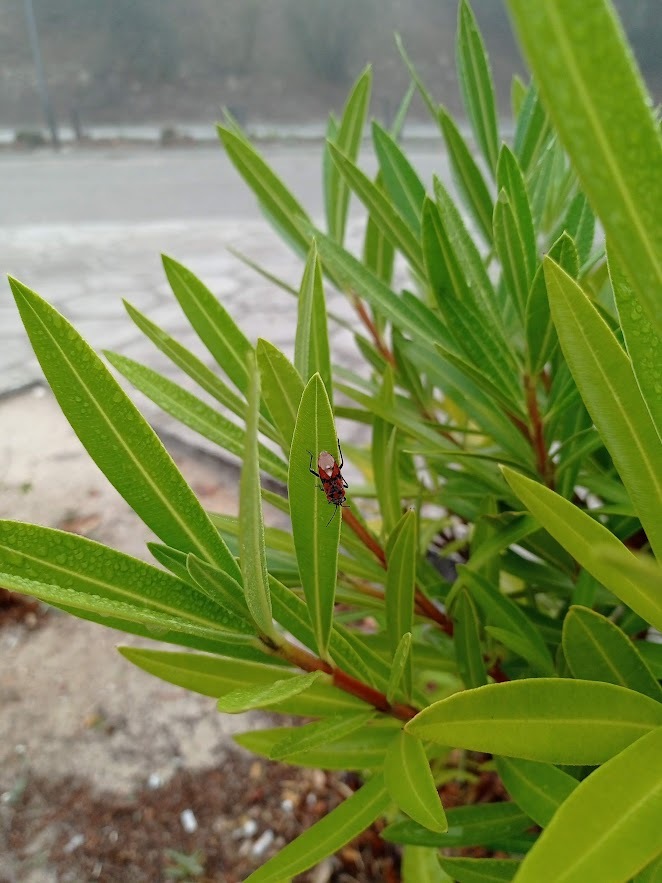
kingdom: Animalia
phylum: Arthropoda
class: Insecta
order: Hemiptera
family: Lygaeidae
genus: Spilostethus
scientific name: Spilostethus pandurus
